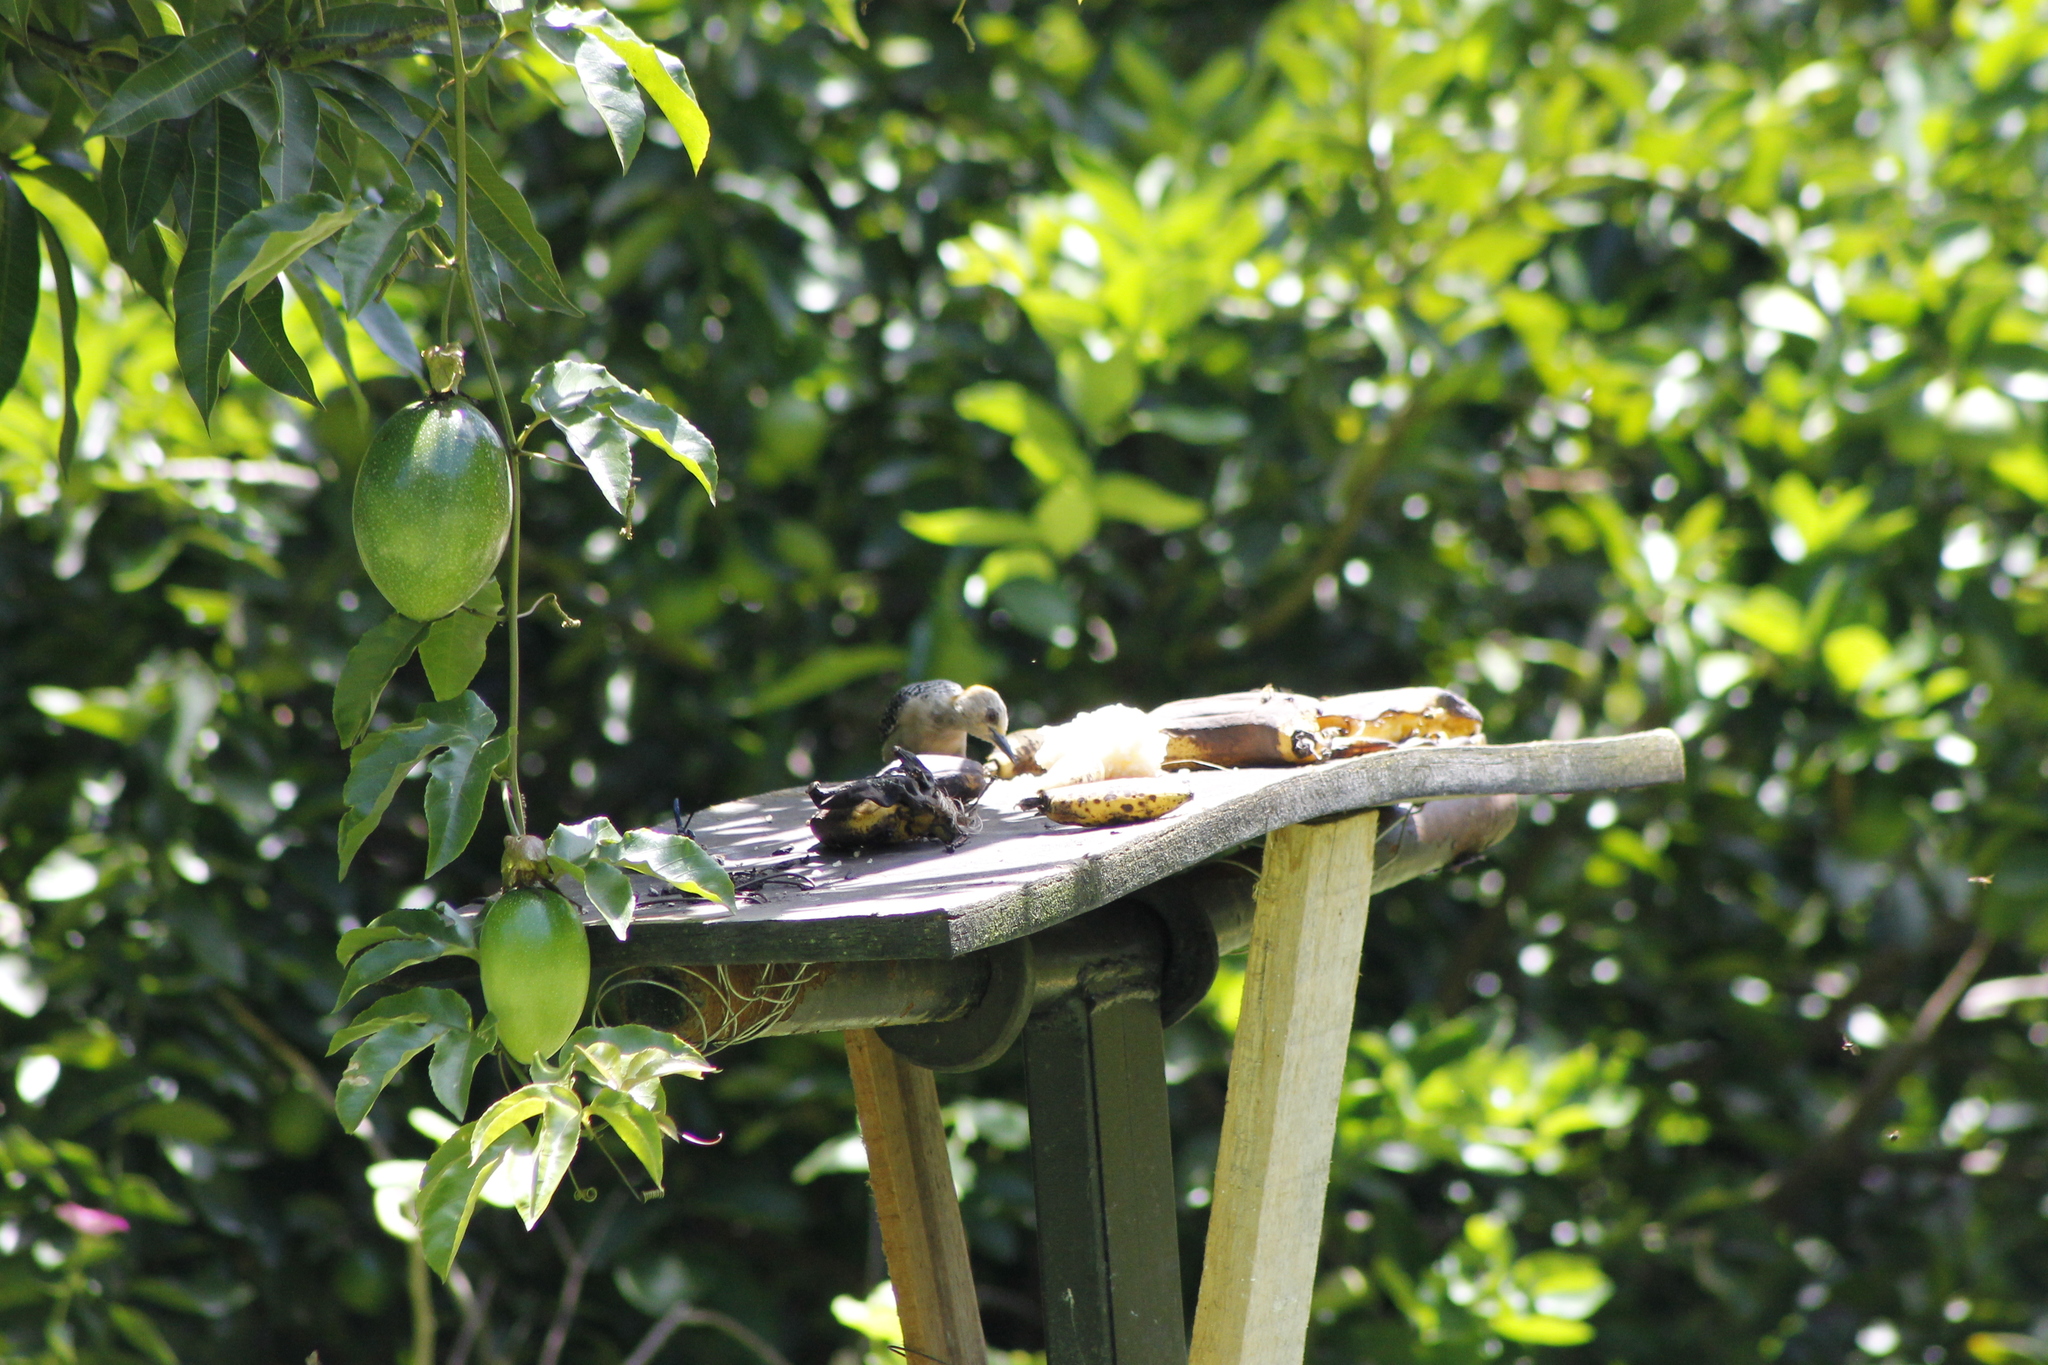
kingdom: Animalia
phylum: Chordata
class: Aves
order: Piciformes
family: Picidae
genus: Melanerpes
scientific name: Melanerpes rubricapillus
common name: Red-crowned woodpecker
